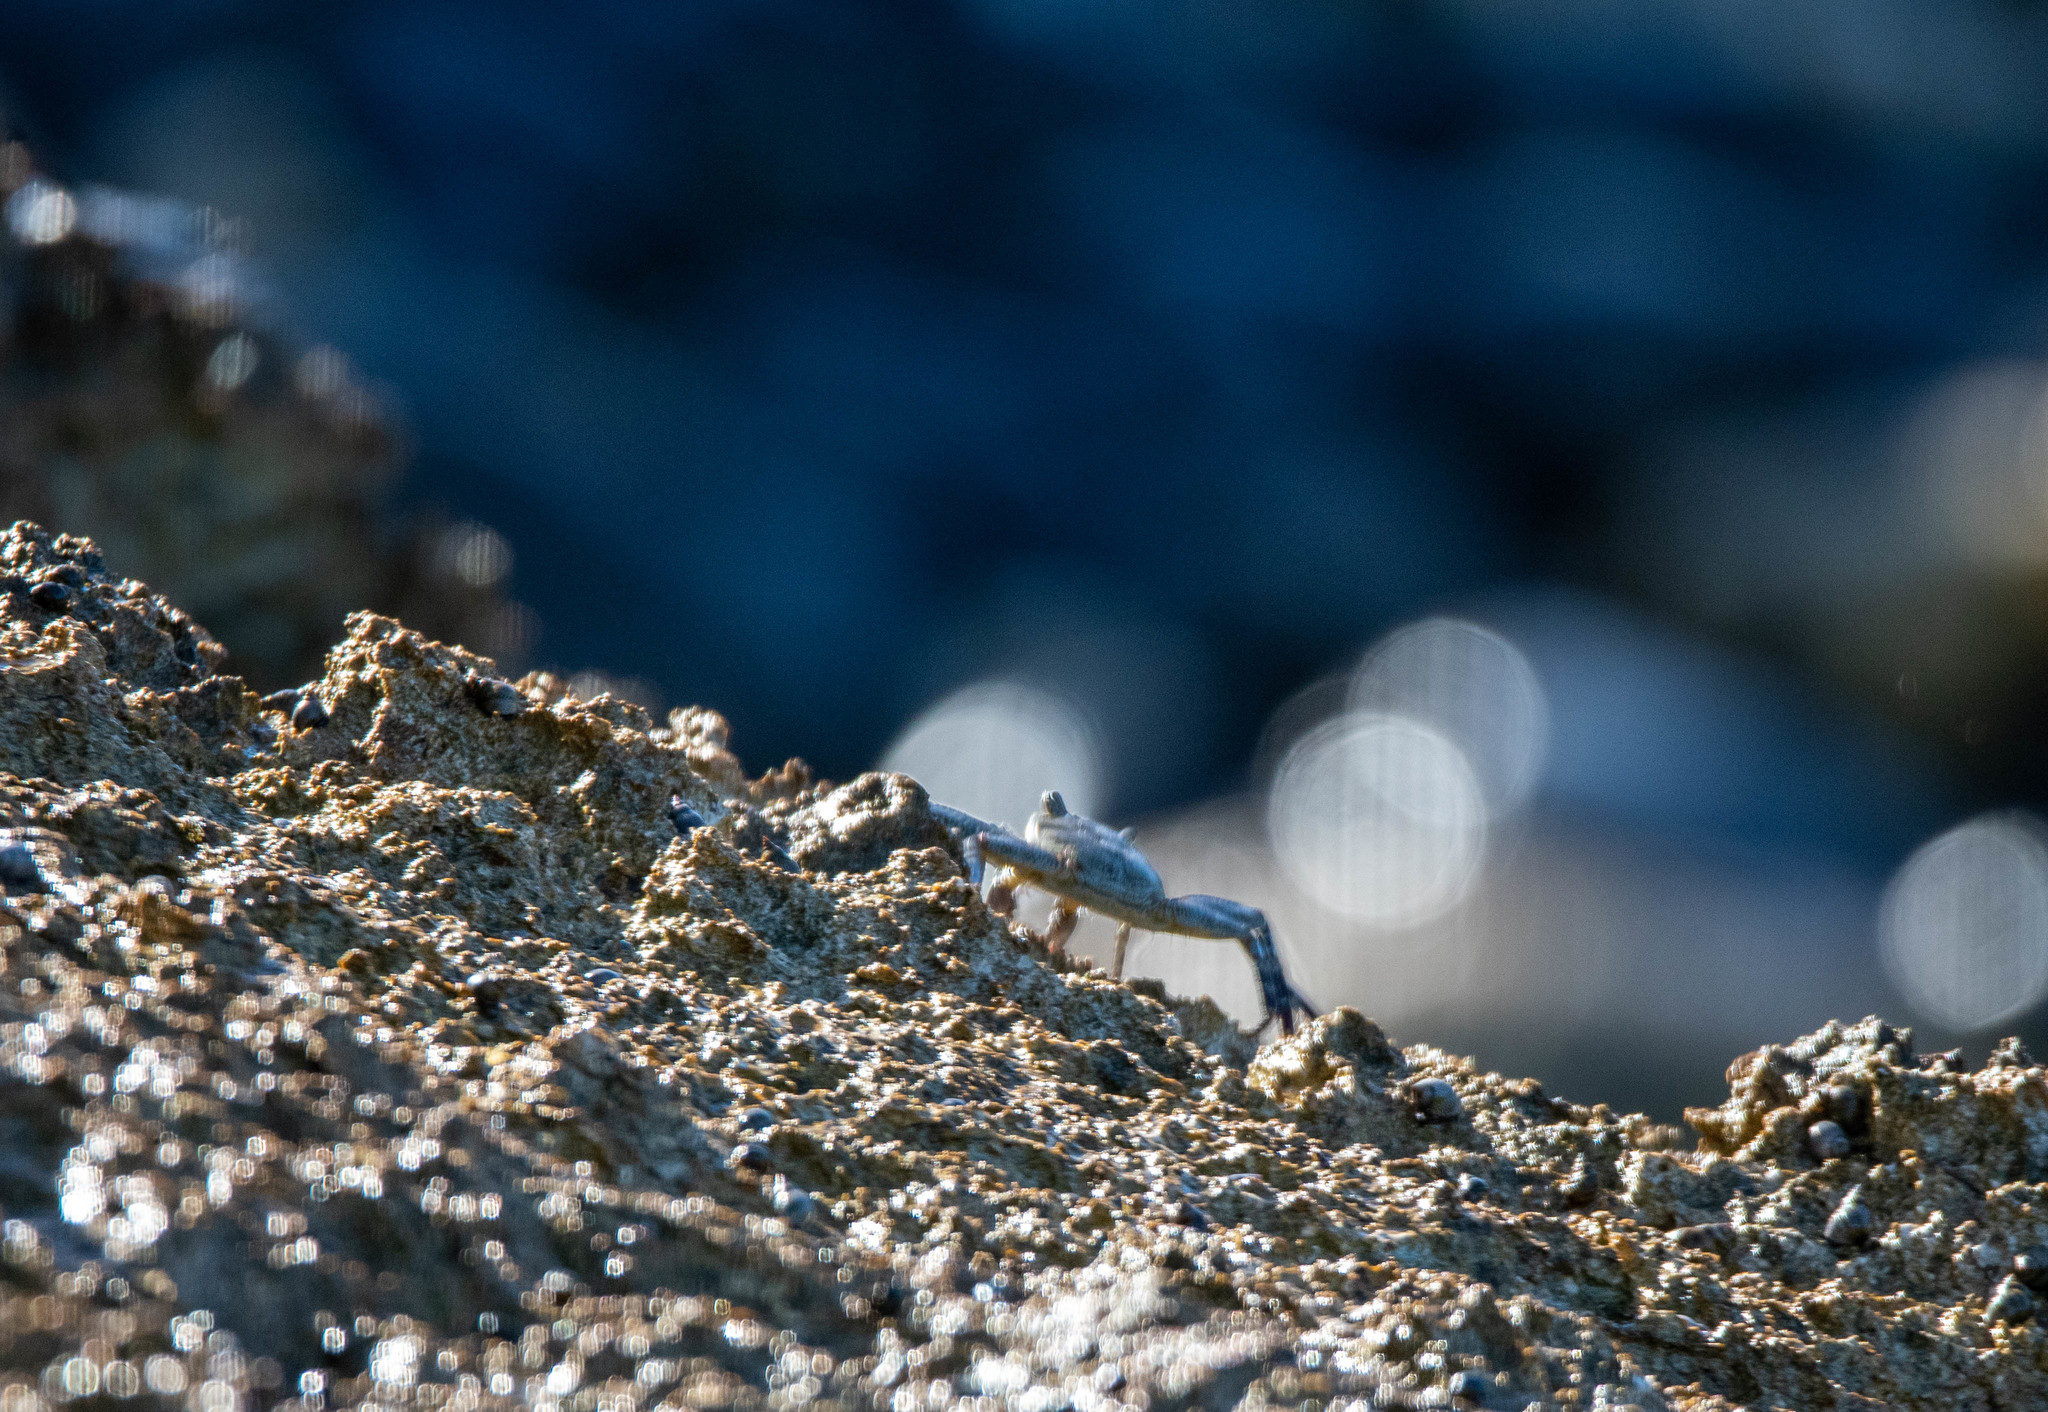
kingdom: Animalia
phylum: Arthropoda
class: Malacostraca
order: Decapoda
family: Grapsidae
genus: Grapsus
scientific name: Grapsus tenuicrustatus
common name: Natal lightfoot crab
